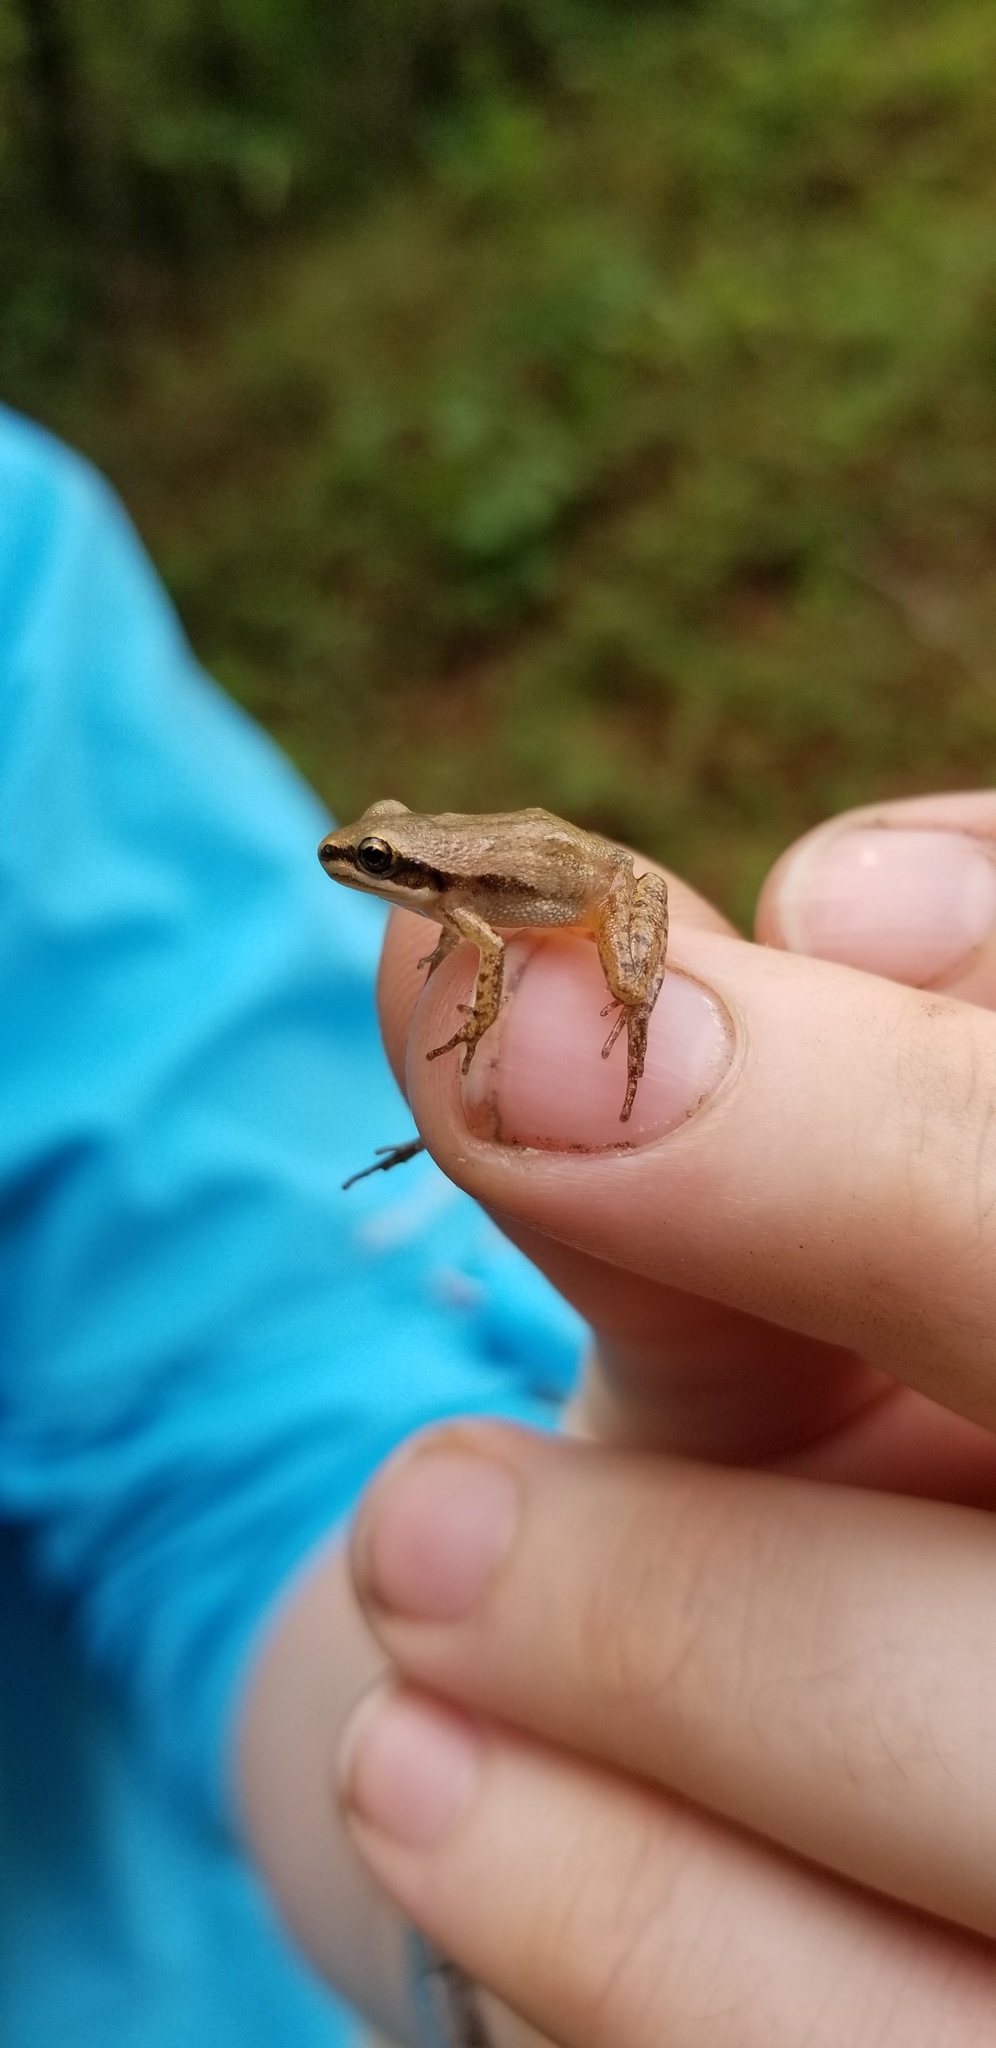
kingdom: Animalia
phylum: Chordata
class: Amphibia
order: Anura
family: Hylidae
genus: Pseudacris
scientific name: Pseudacris fouquettei
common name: Cajun chorus frog
